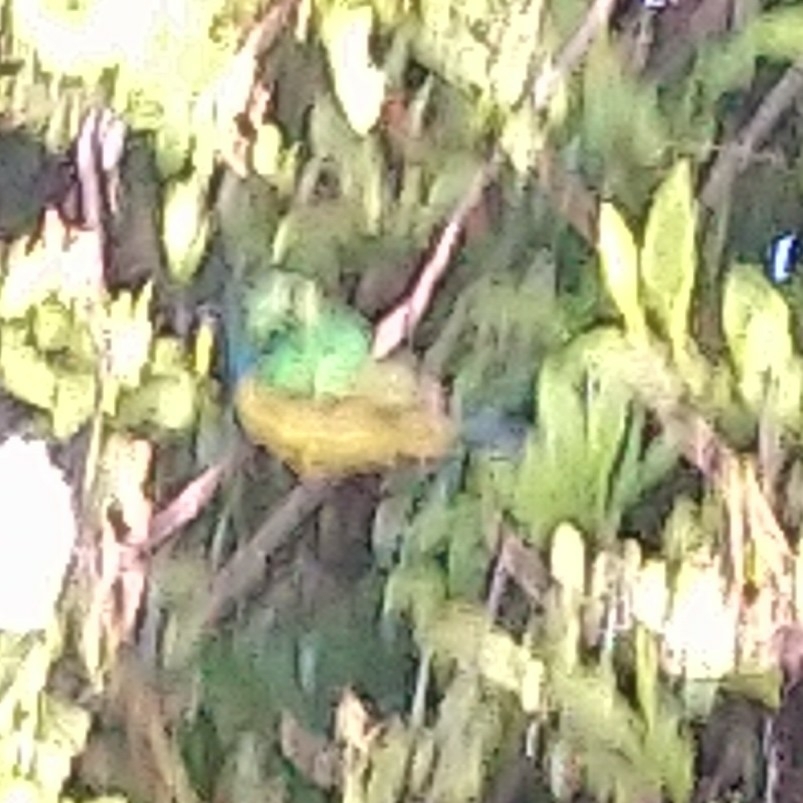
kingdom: Animalia
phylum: Chordata
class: Aves
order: Passeriformes
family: Nectariniidae
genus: Hedydipna
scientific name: Hedydipna collaris
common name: Collared sunbird
